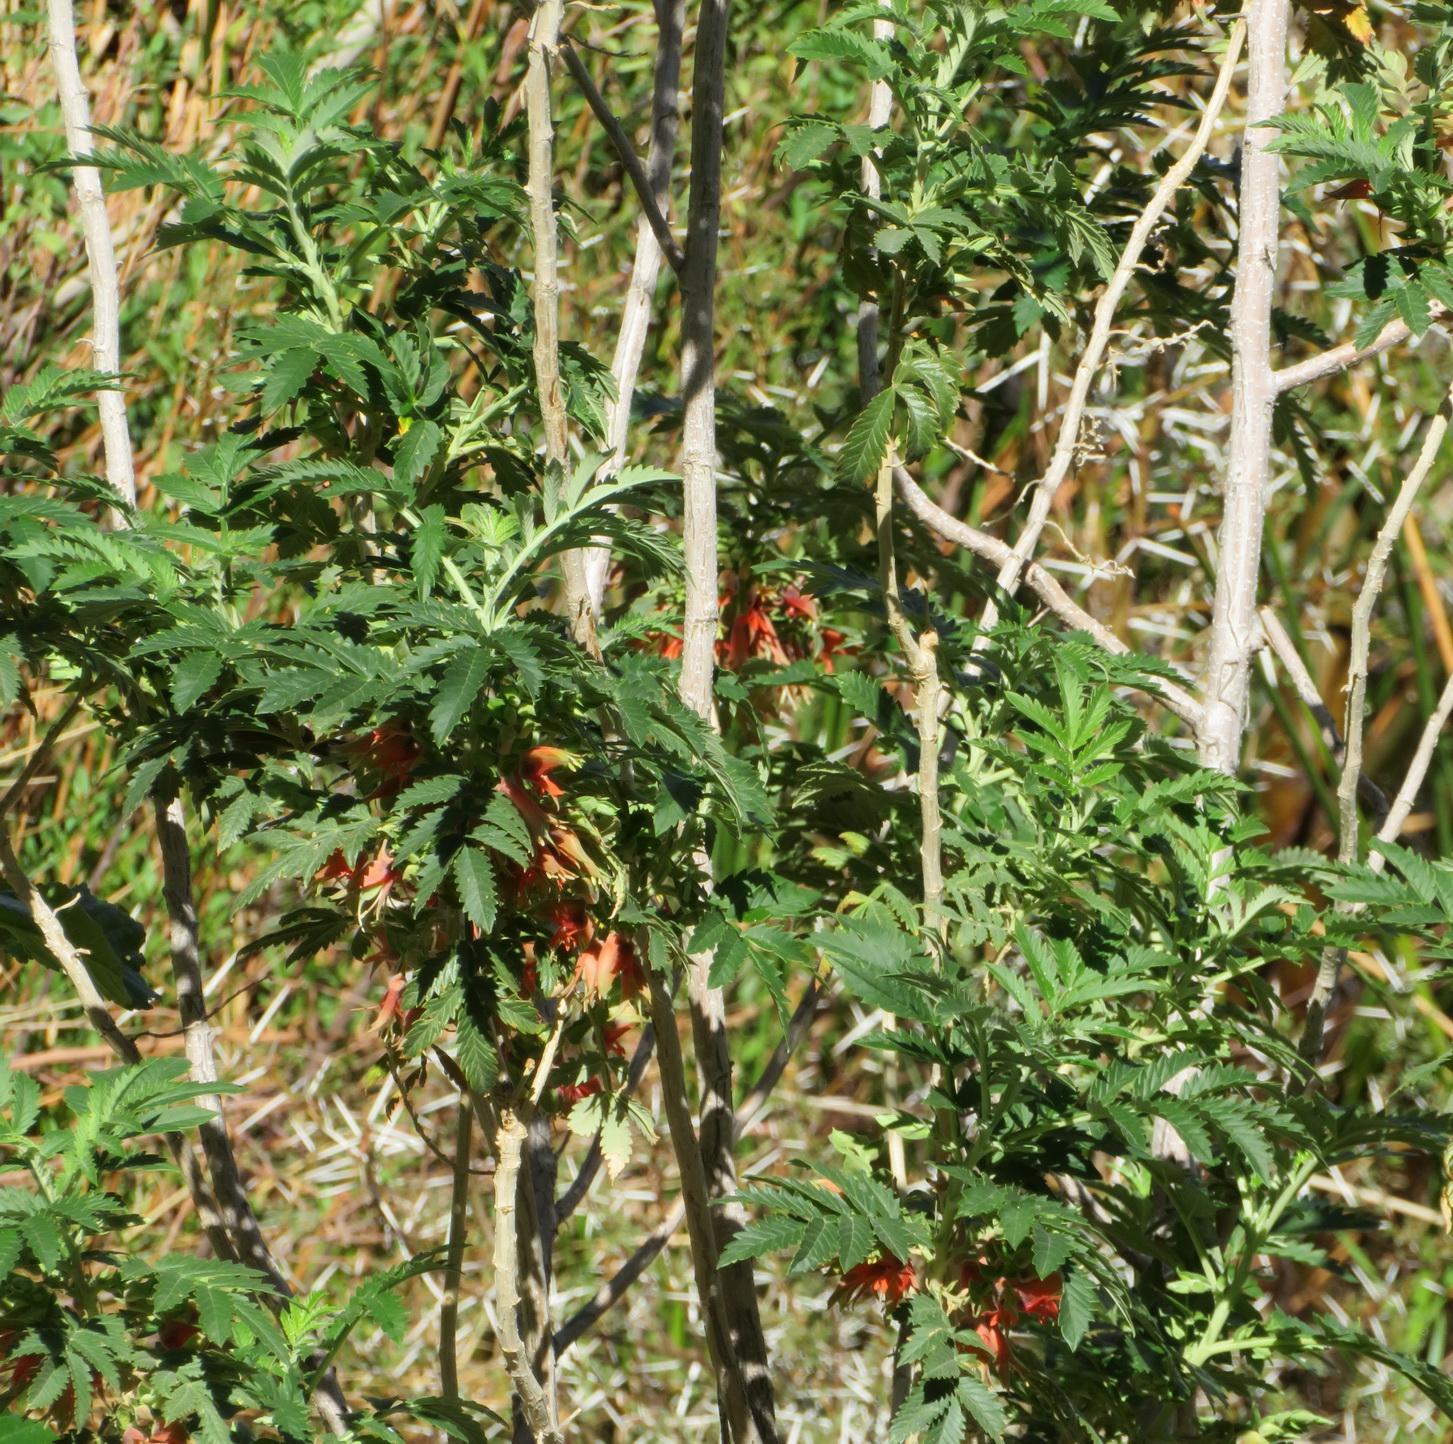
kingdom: Plantae
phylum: Tracheophyta
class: Magnoliopsida
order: Geraniales
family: Melianthaceae
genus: Melianthus
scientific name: Melianthus comosus
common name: Touch-me-not
